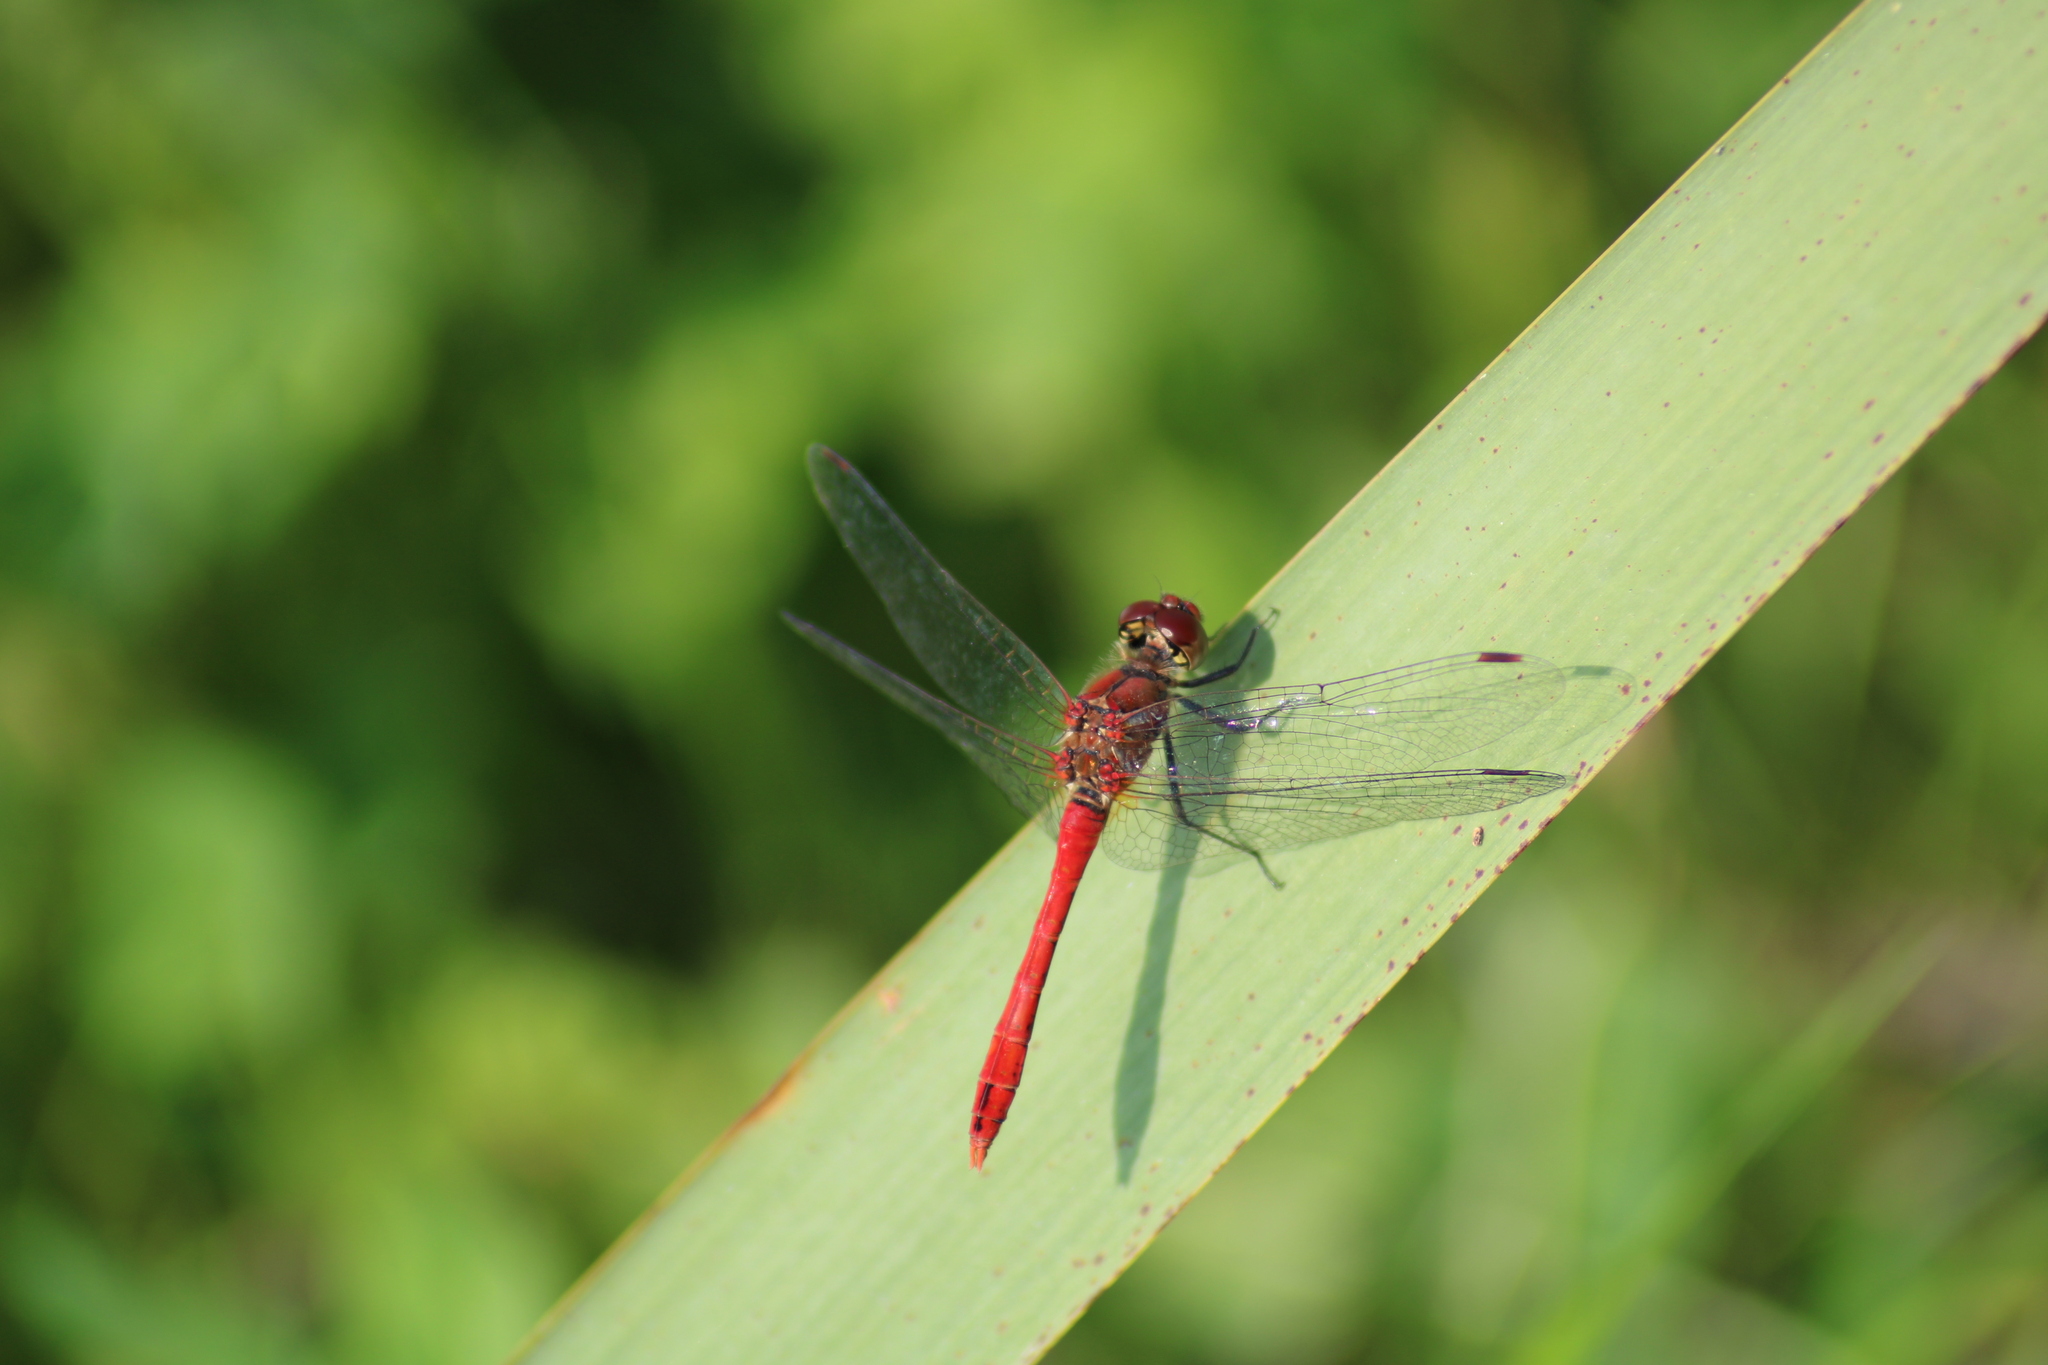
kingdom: Animalia
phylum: Arthropoda
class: Insecta
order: Odonata
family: Libellulidae
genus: Sympetrum
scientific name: Sympetrum sanguineum
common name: Ruddy darter
